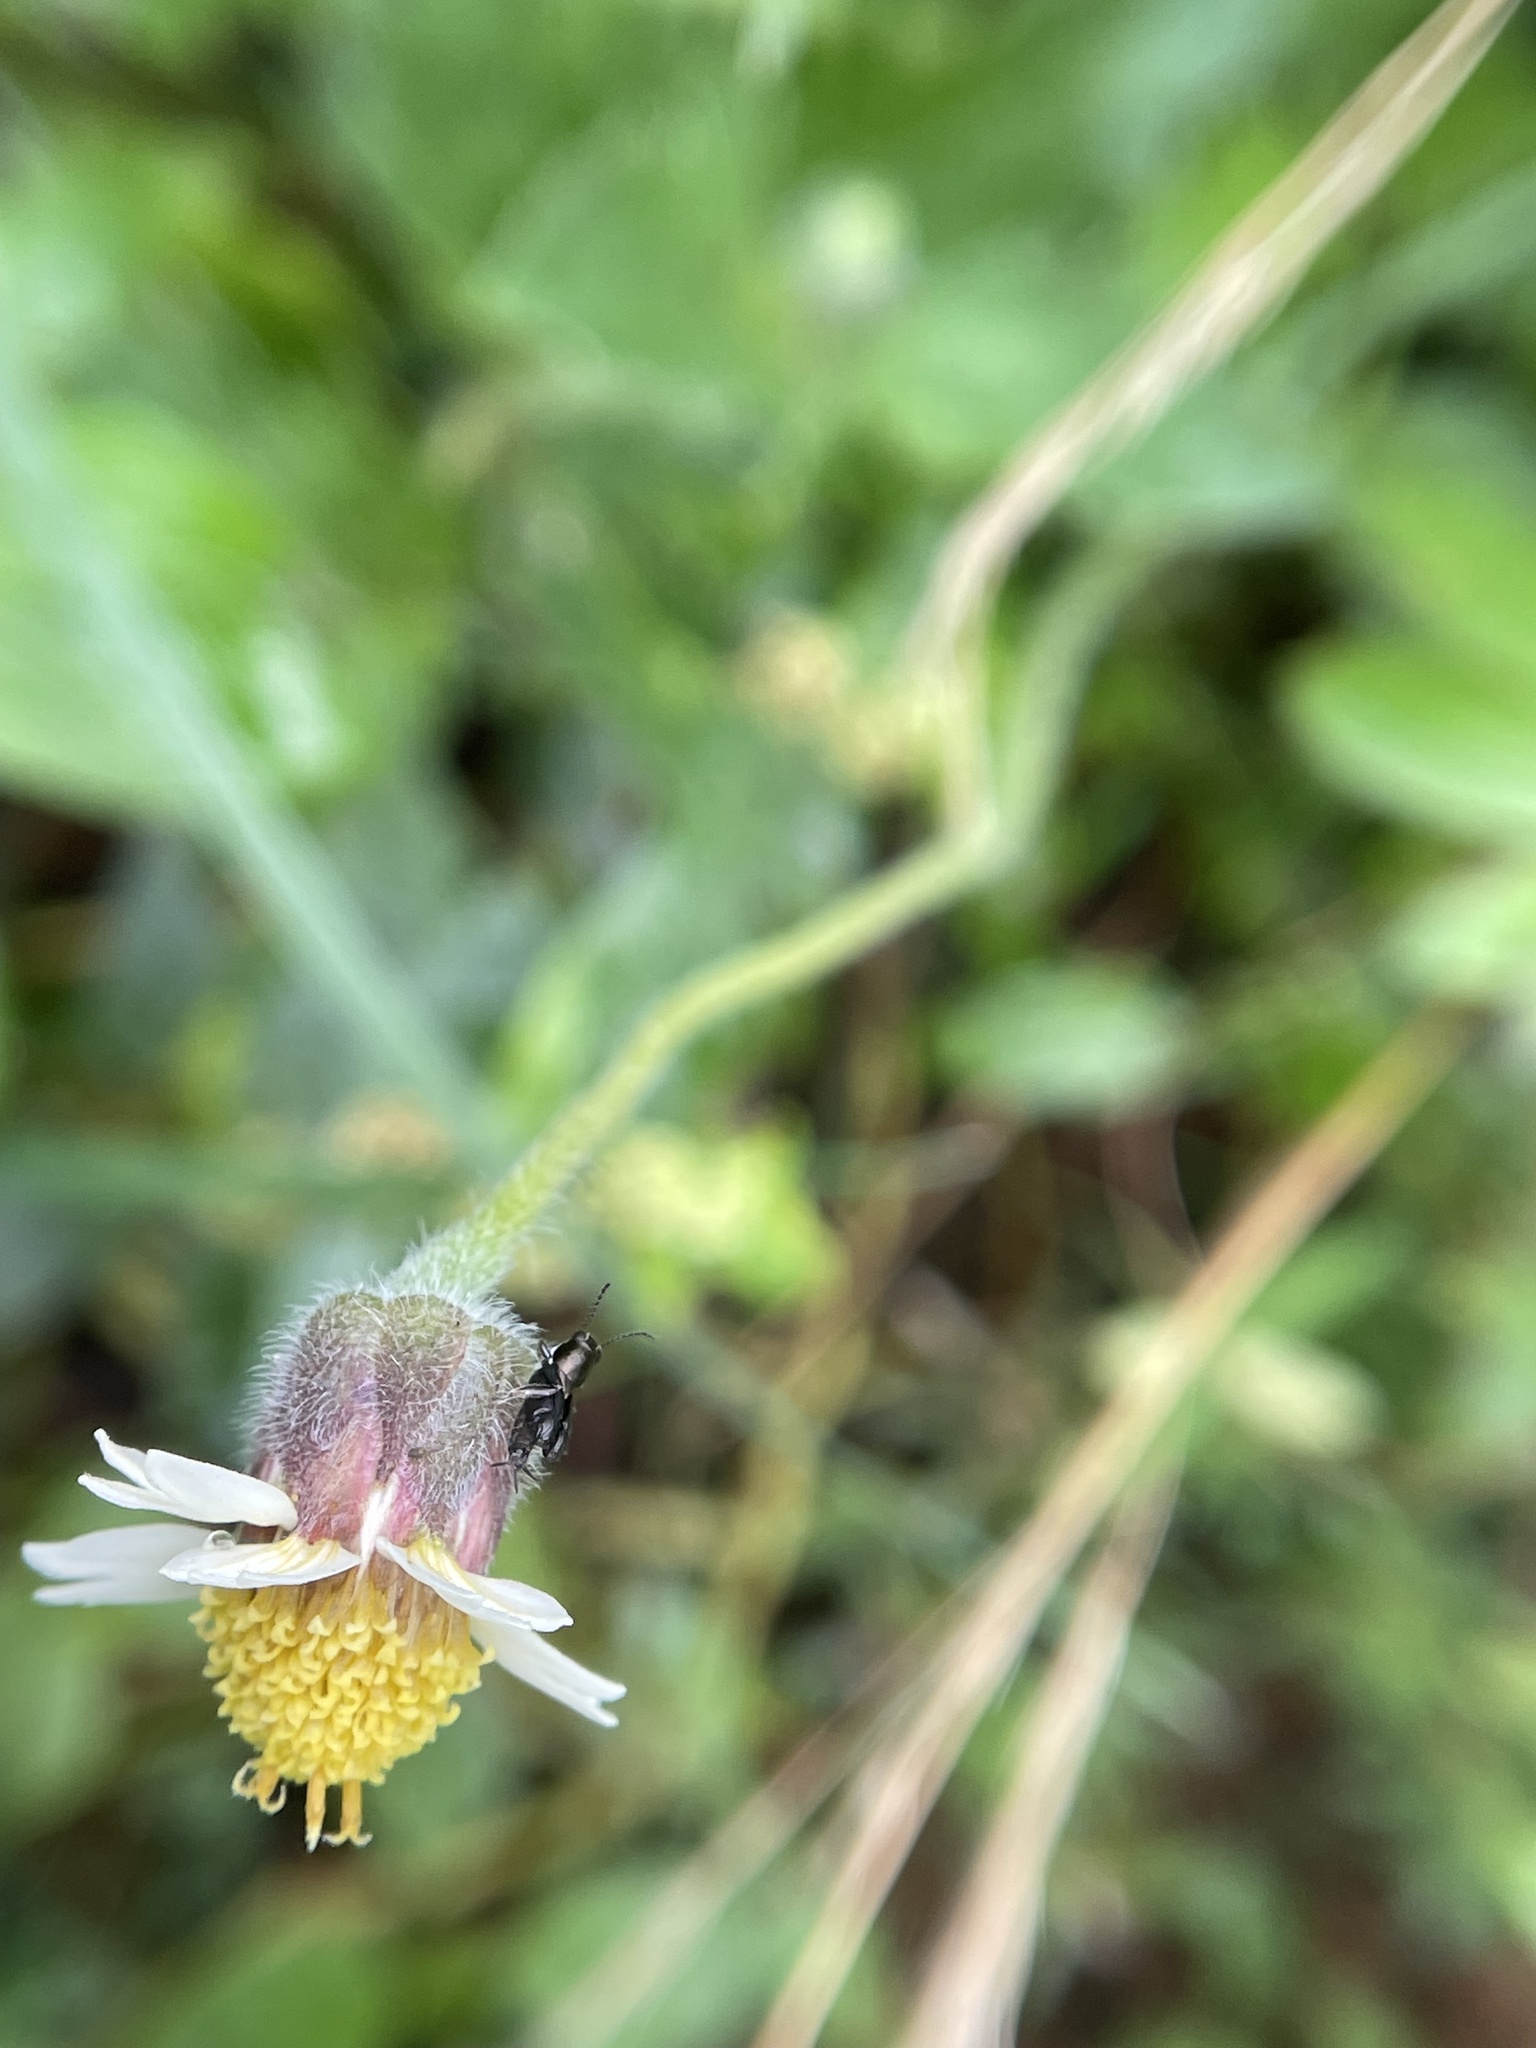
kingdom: Plantae
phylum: Tracheophyta
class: Magnoliopsida
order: Asterales
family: Asteraceae
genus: Tridax
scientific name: Tridax procumbens
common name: Coatbuttons
